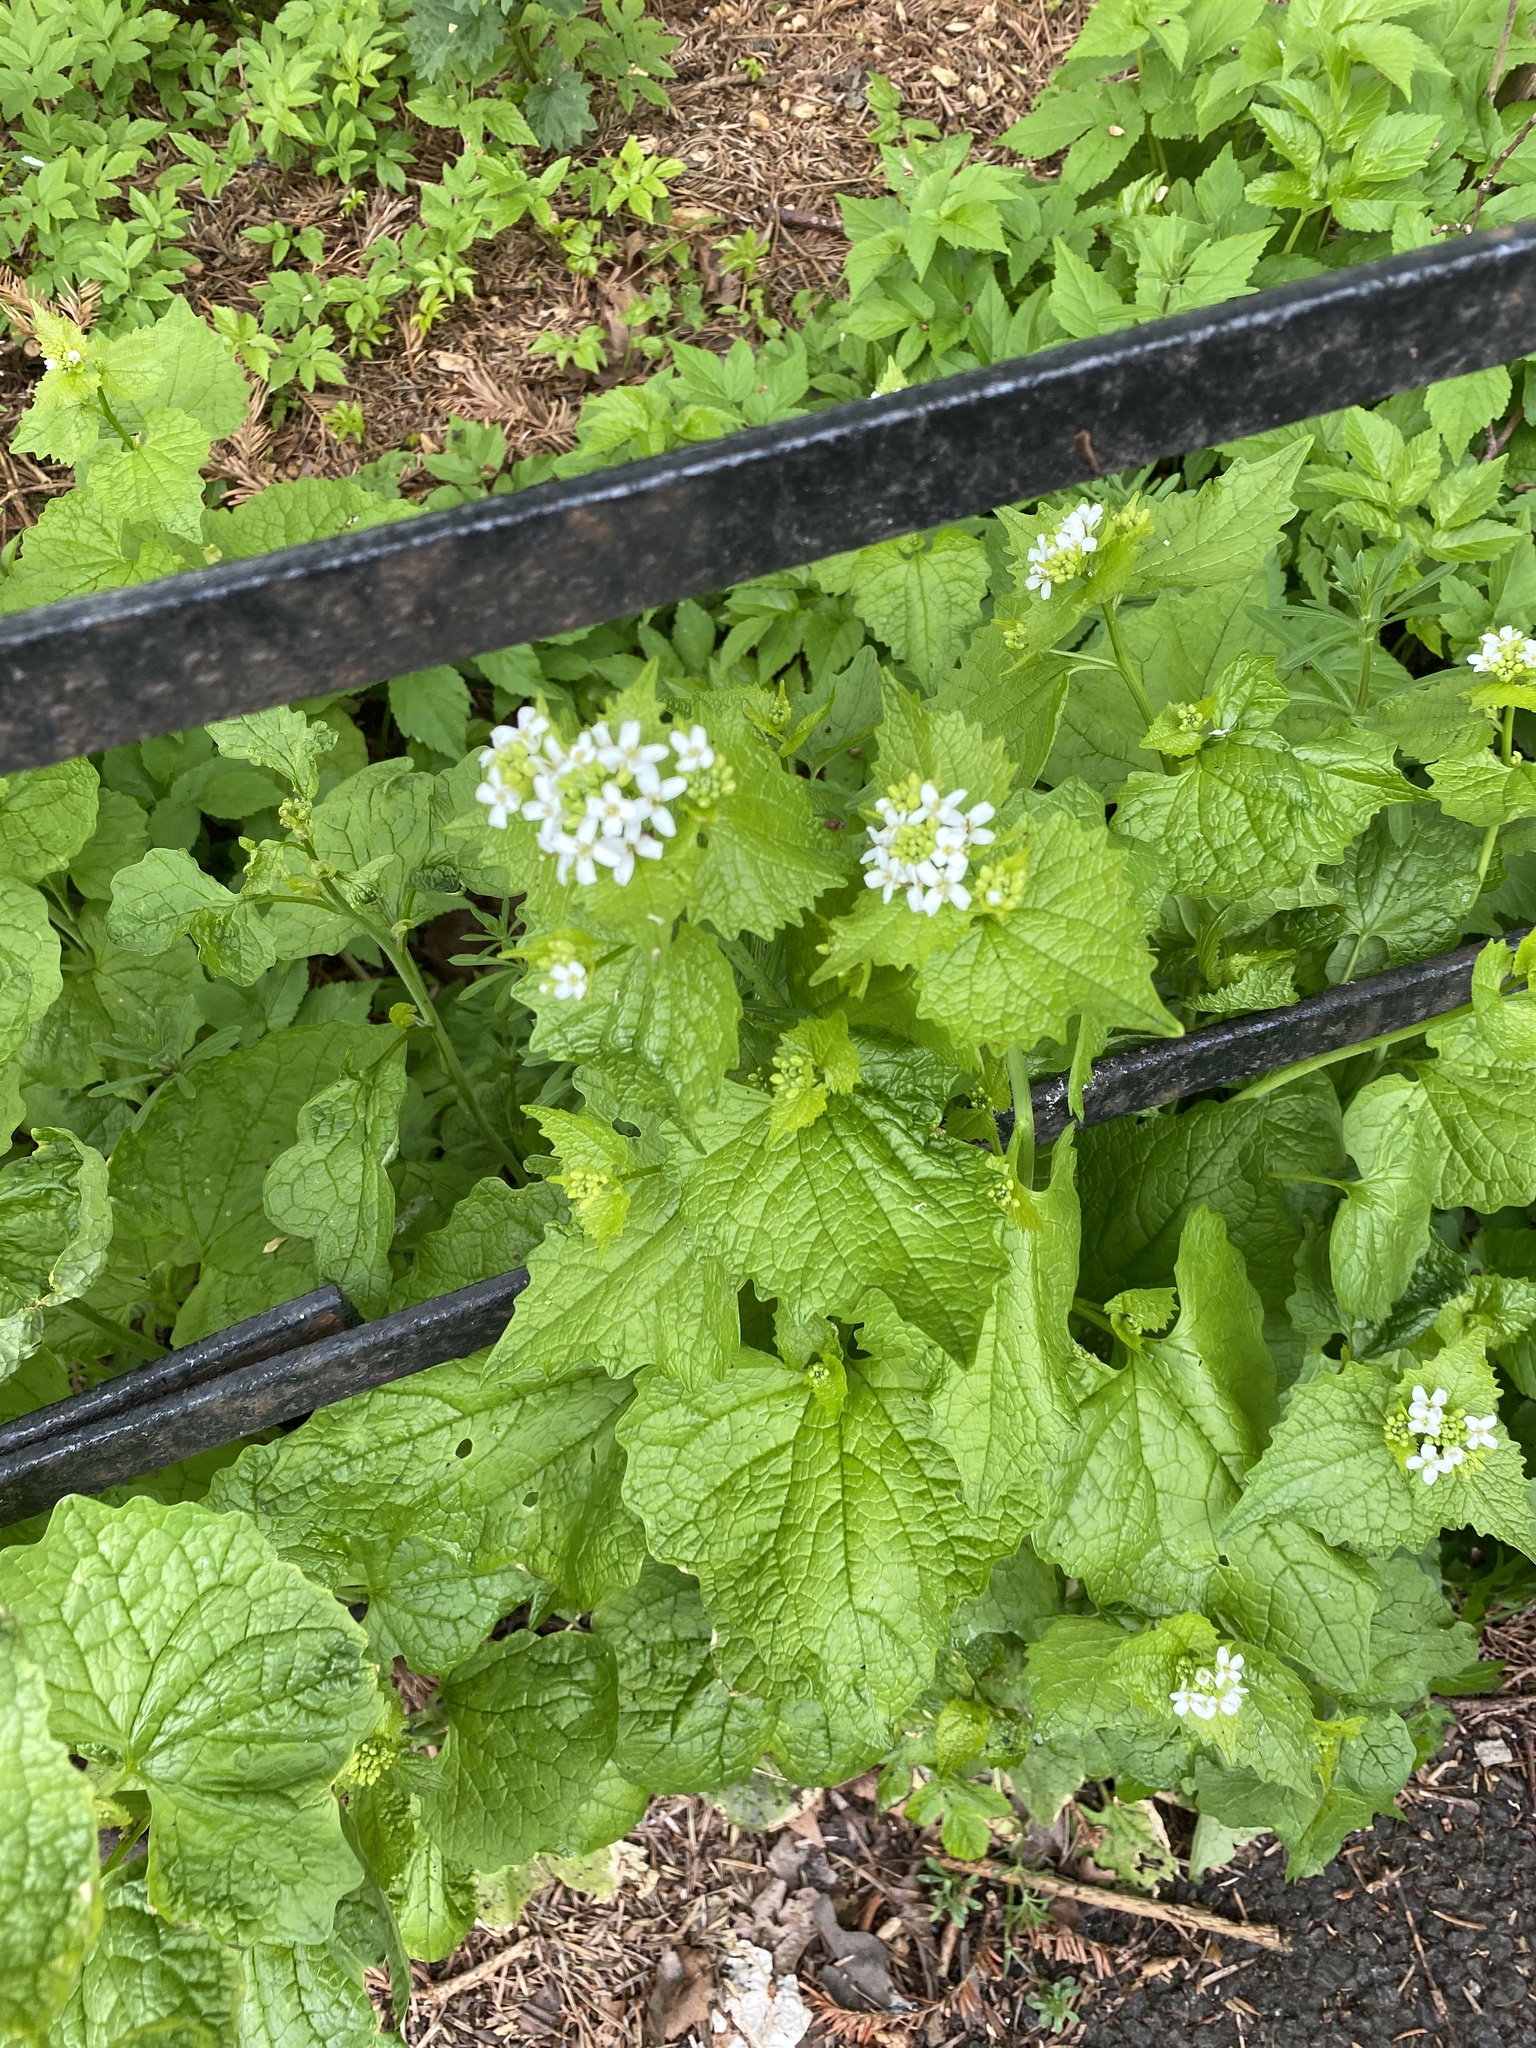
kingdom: Plantae
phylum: Tracheophyta
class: Magnoliopsida
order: Brassicales
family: Brassicaceae
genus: Alliaria
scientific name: Alliaria petiolata
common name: Garlic mustard
